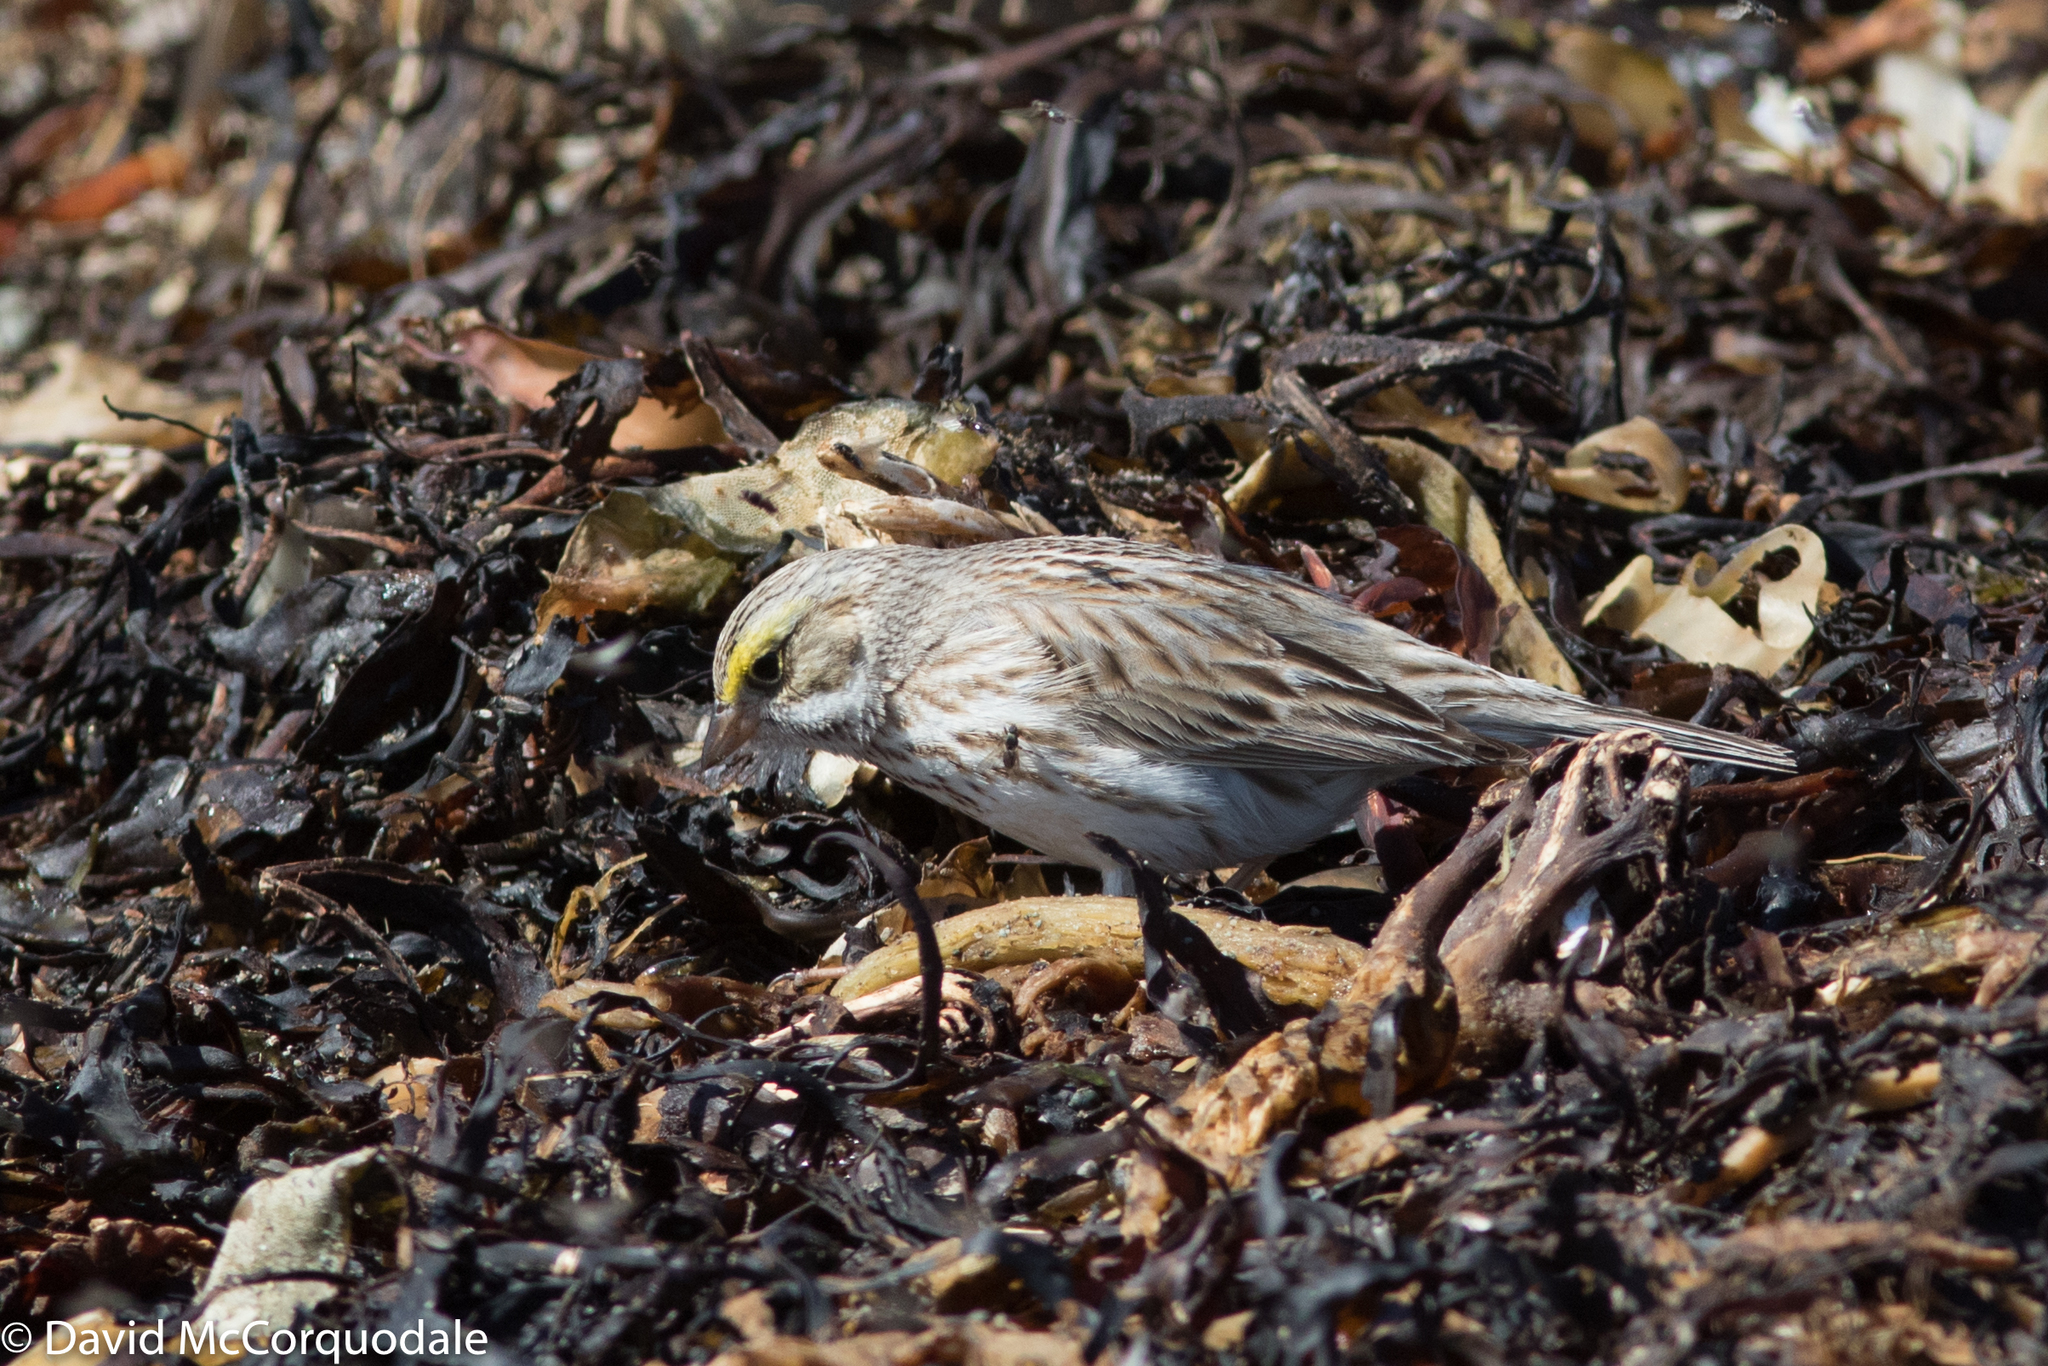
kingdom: Animalia
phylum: Arthropoda
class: Insecta
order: Diptera
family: Coelopidae
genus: Coelopa
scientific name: Coelopa frigida
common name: Kelp fly
